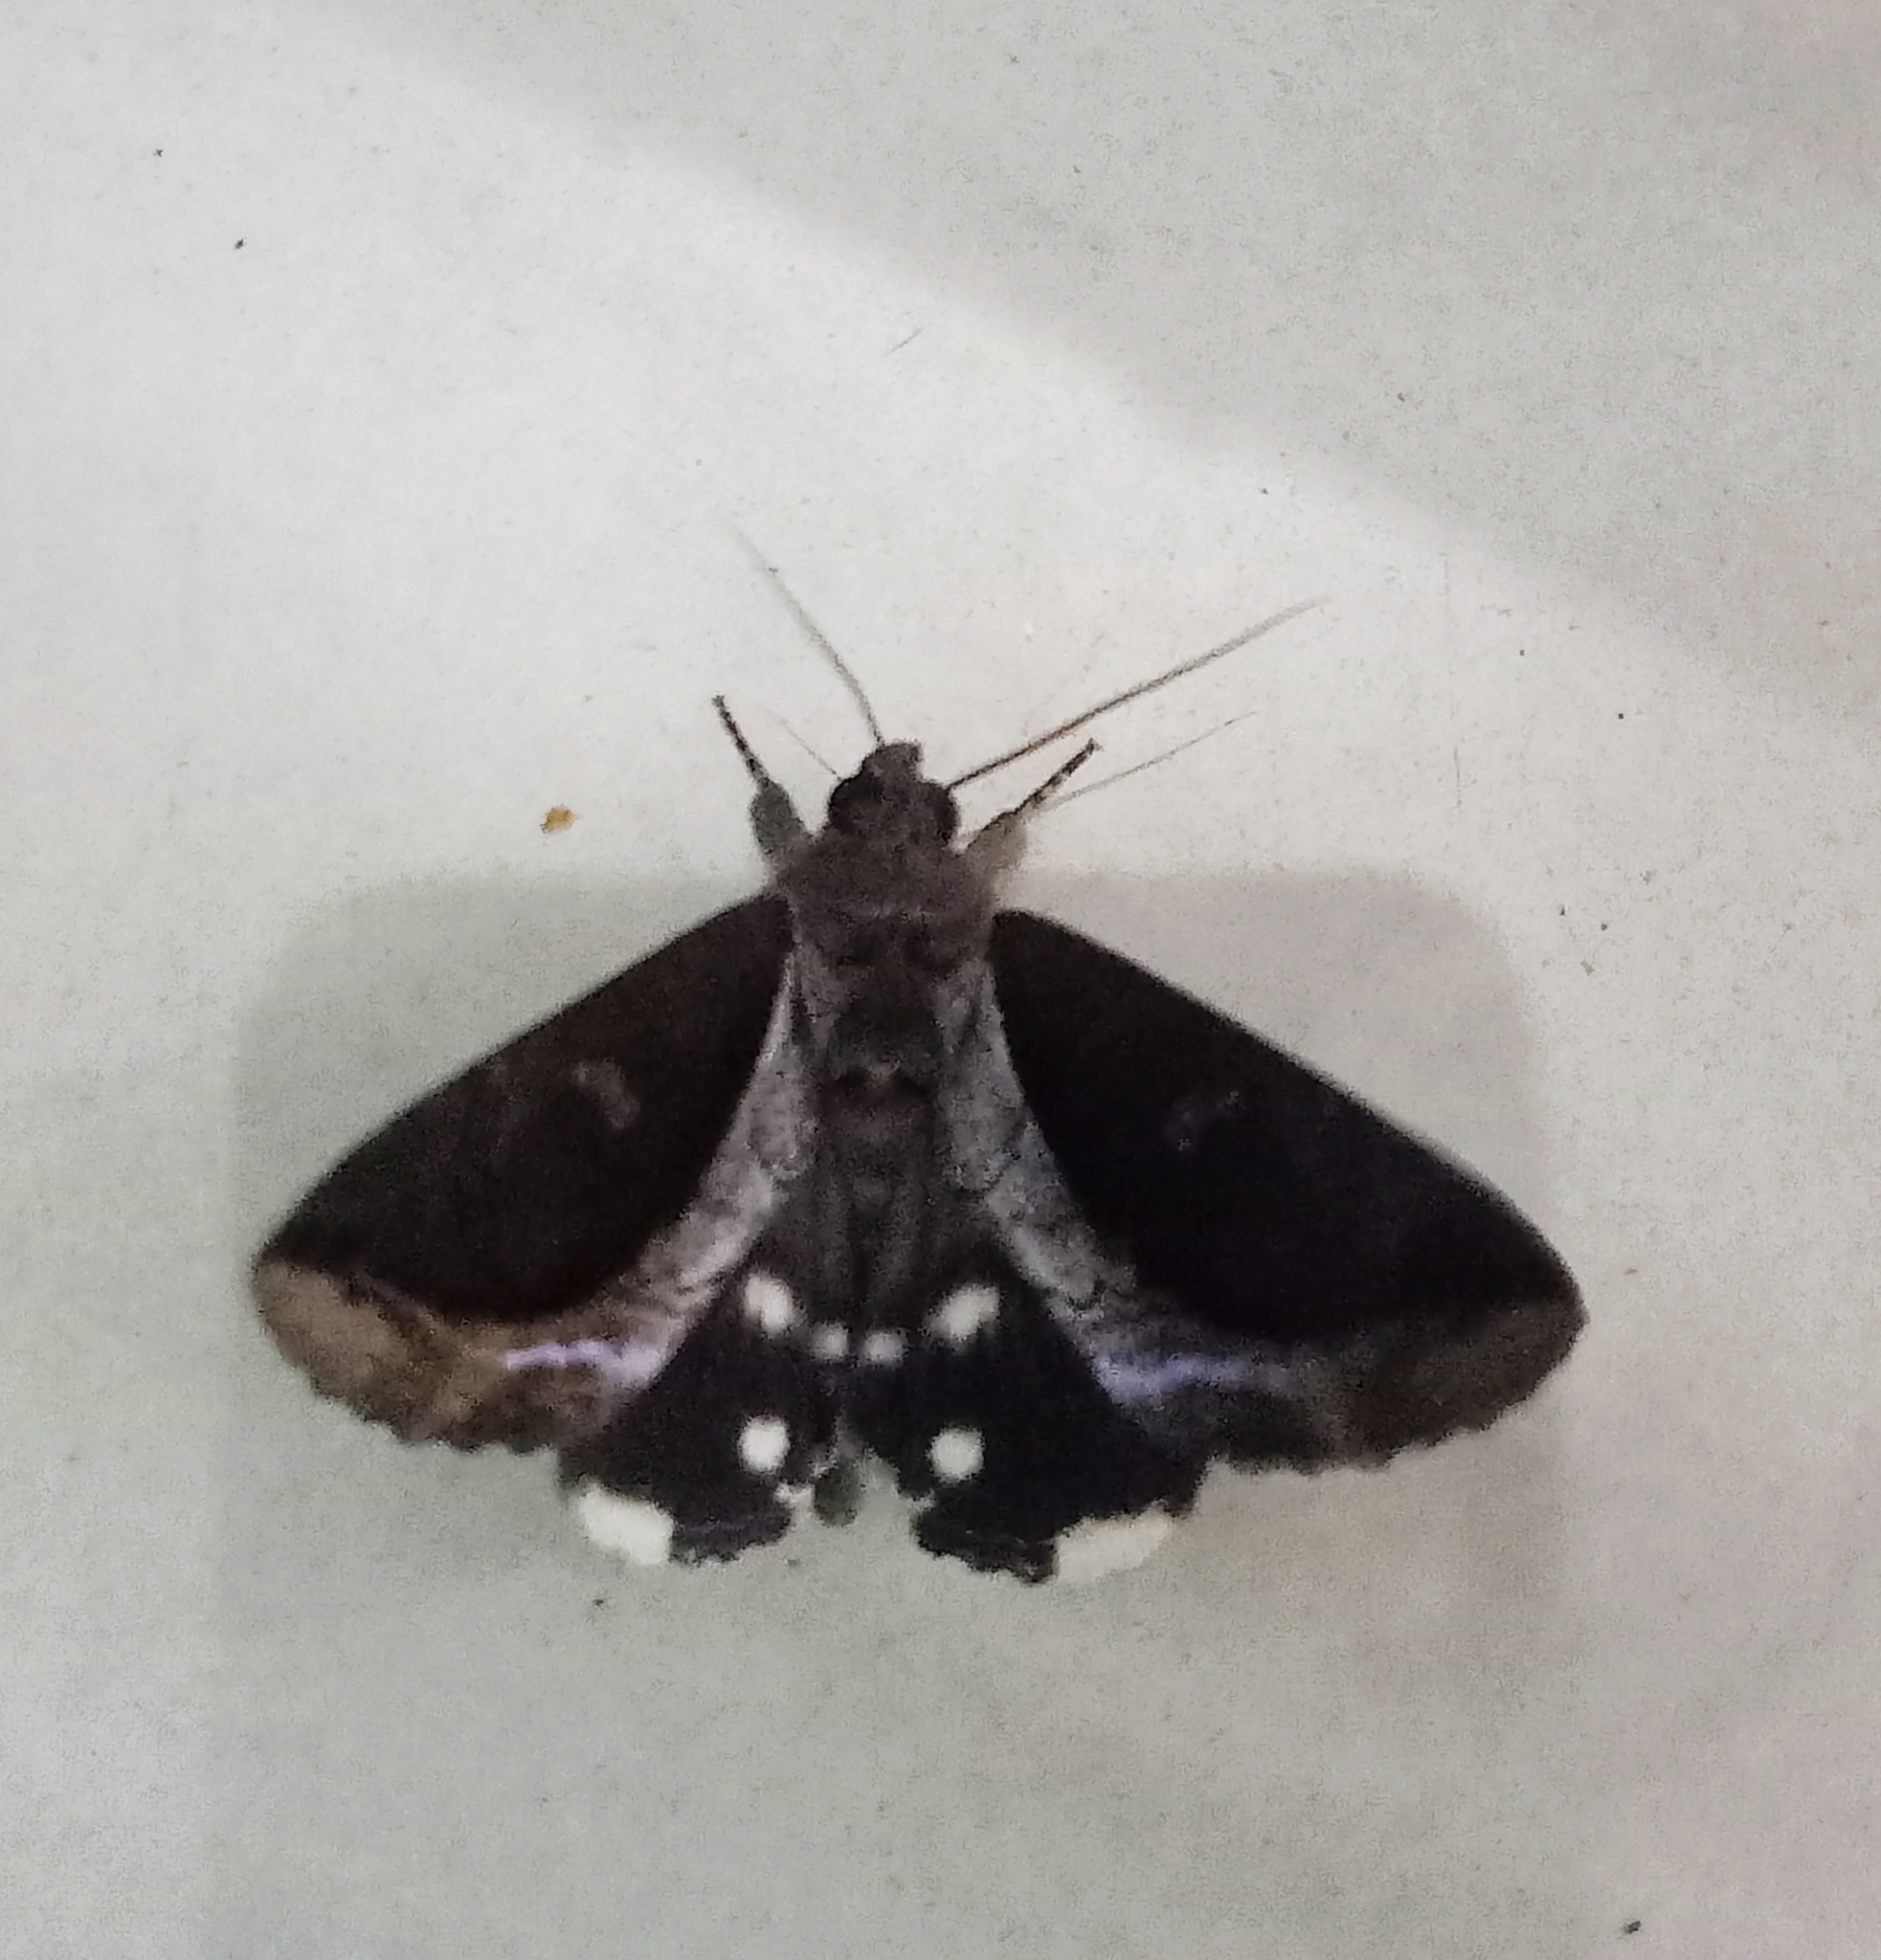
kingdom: Animalia
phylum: Arthropoda
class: Insecta
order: Lepidoptera
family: Erebidae
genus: Ercheia
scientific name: Ercheia cyllaria
